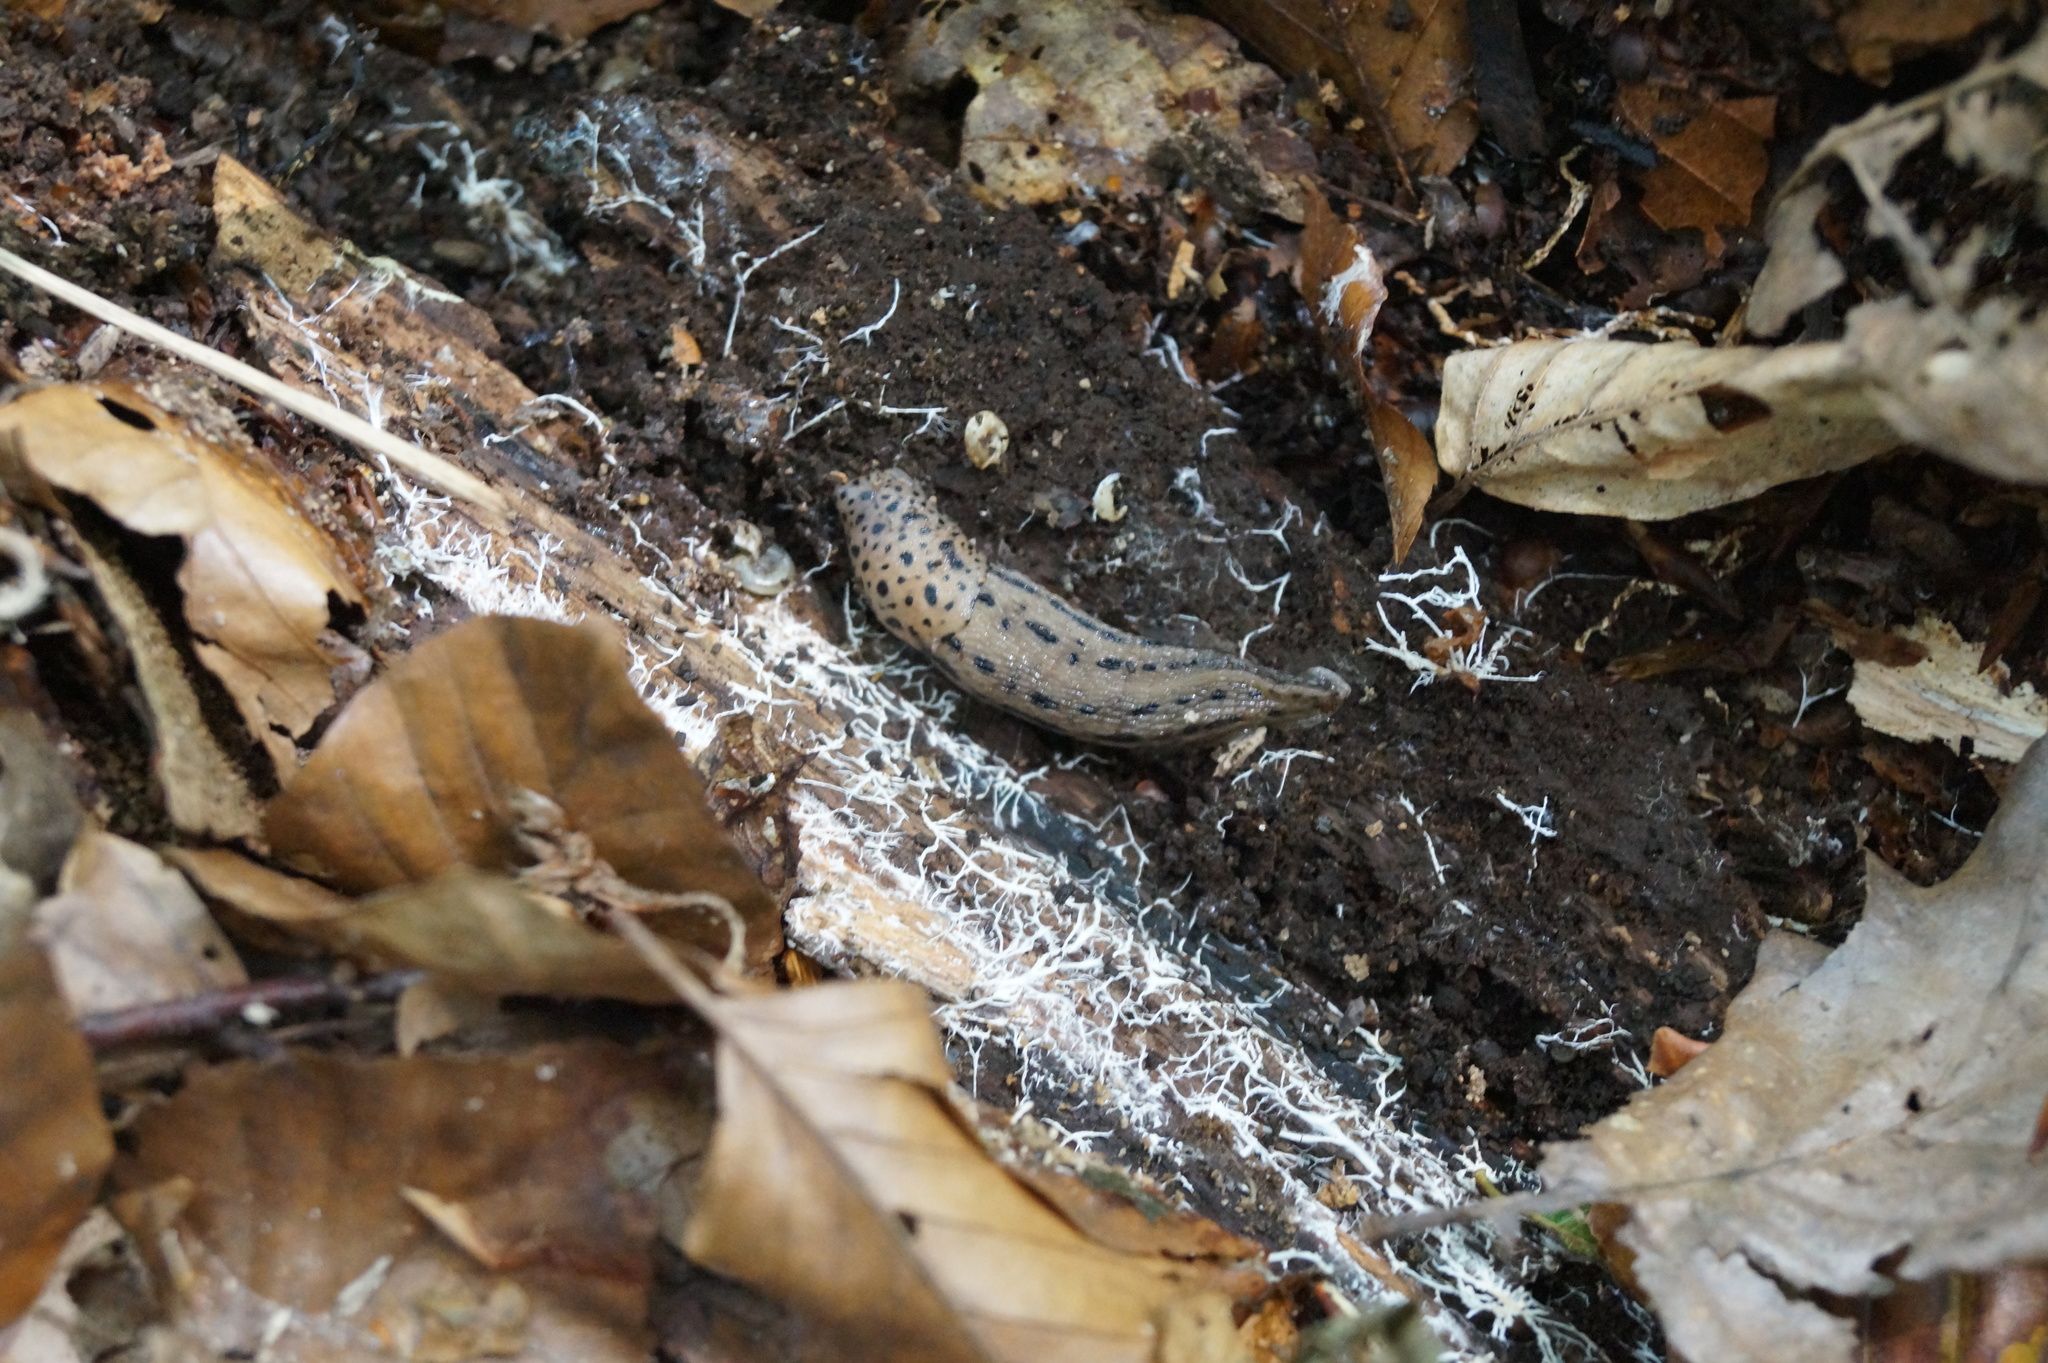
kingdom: Animalia
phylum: Mollusca
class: Gastropoda
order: Stylommatophora
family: Limacidae
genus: Limax
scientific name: Limax maximus
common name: Great grey slug
